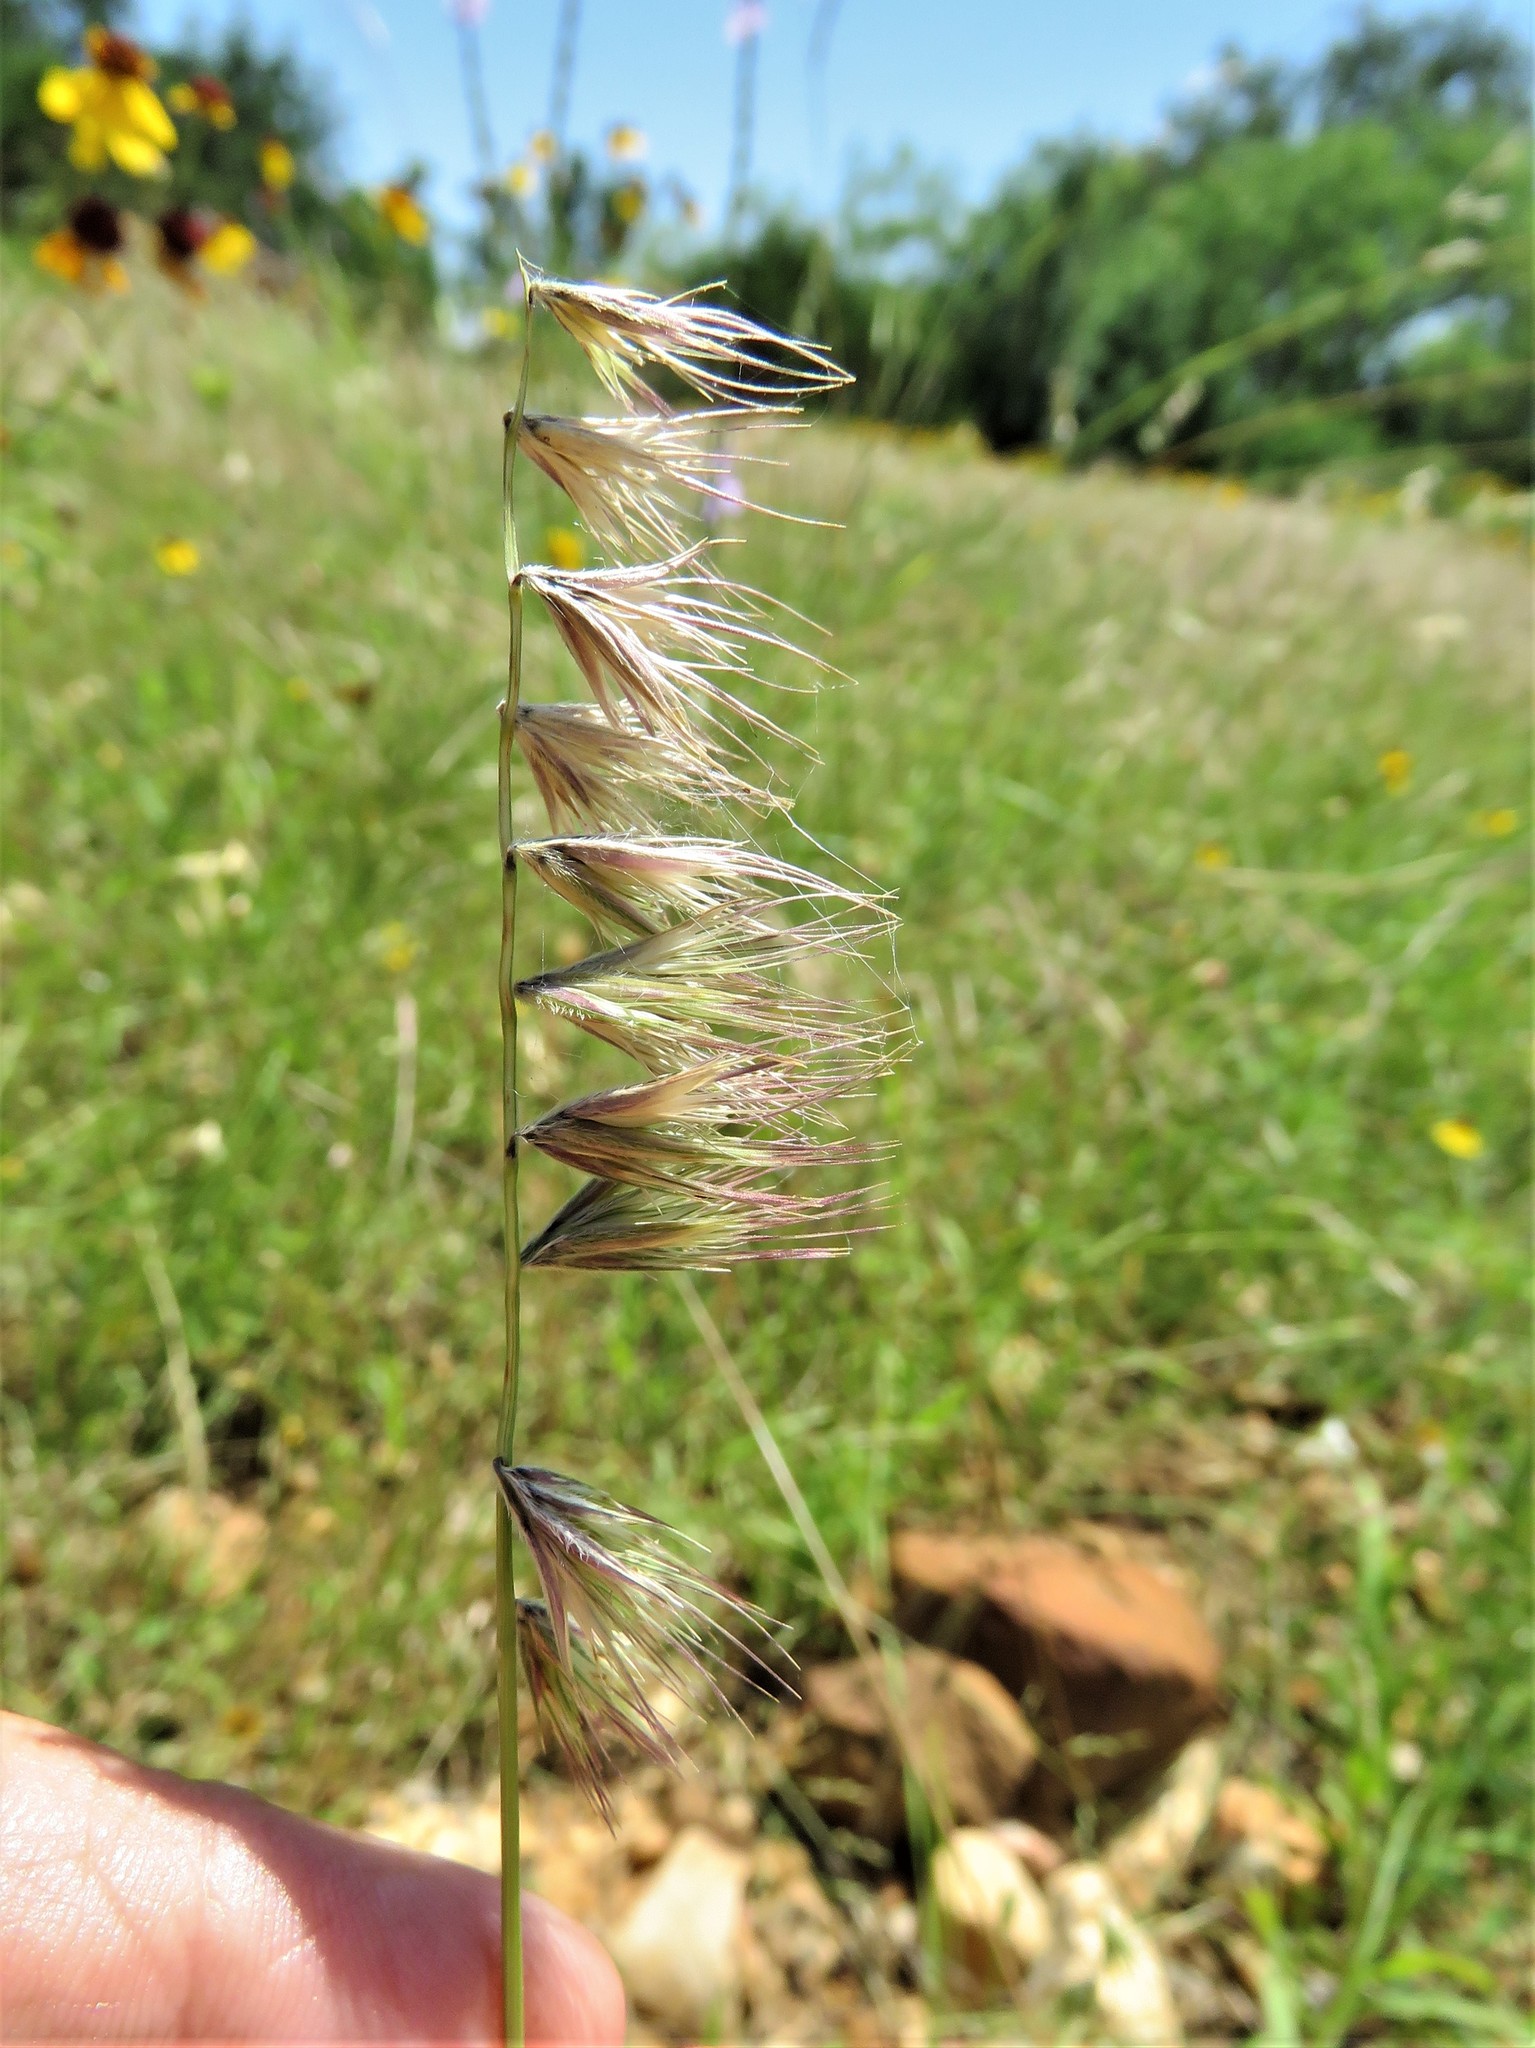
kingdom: Plantae
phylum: Tracheophyta
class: Liliopsida
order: Poales
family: Poaceae
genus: Bouteloua
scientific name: Bouteloua rigidiseta
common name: Texas grama
